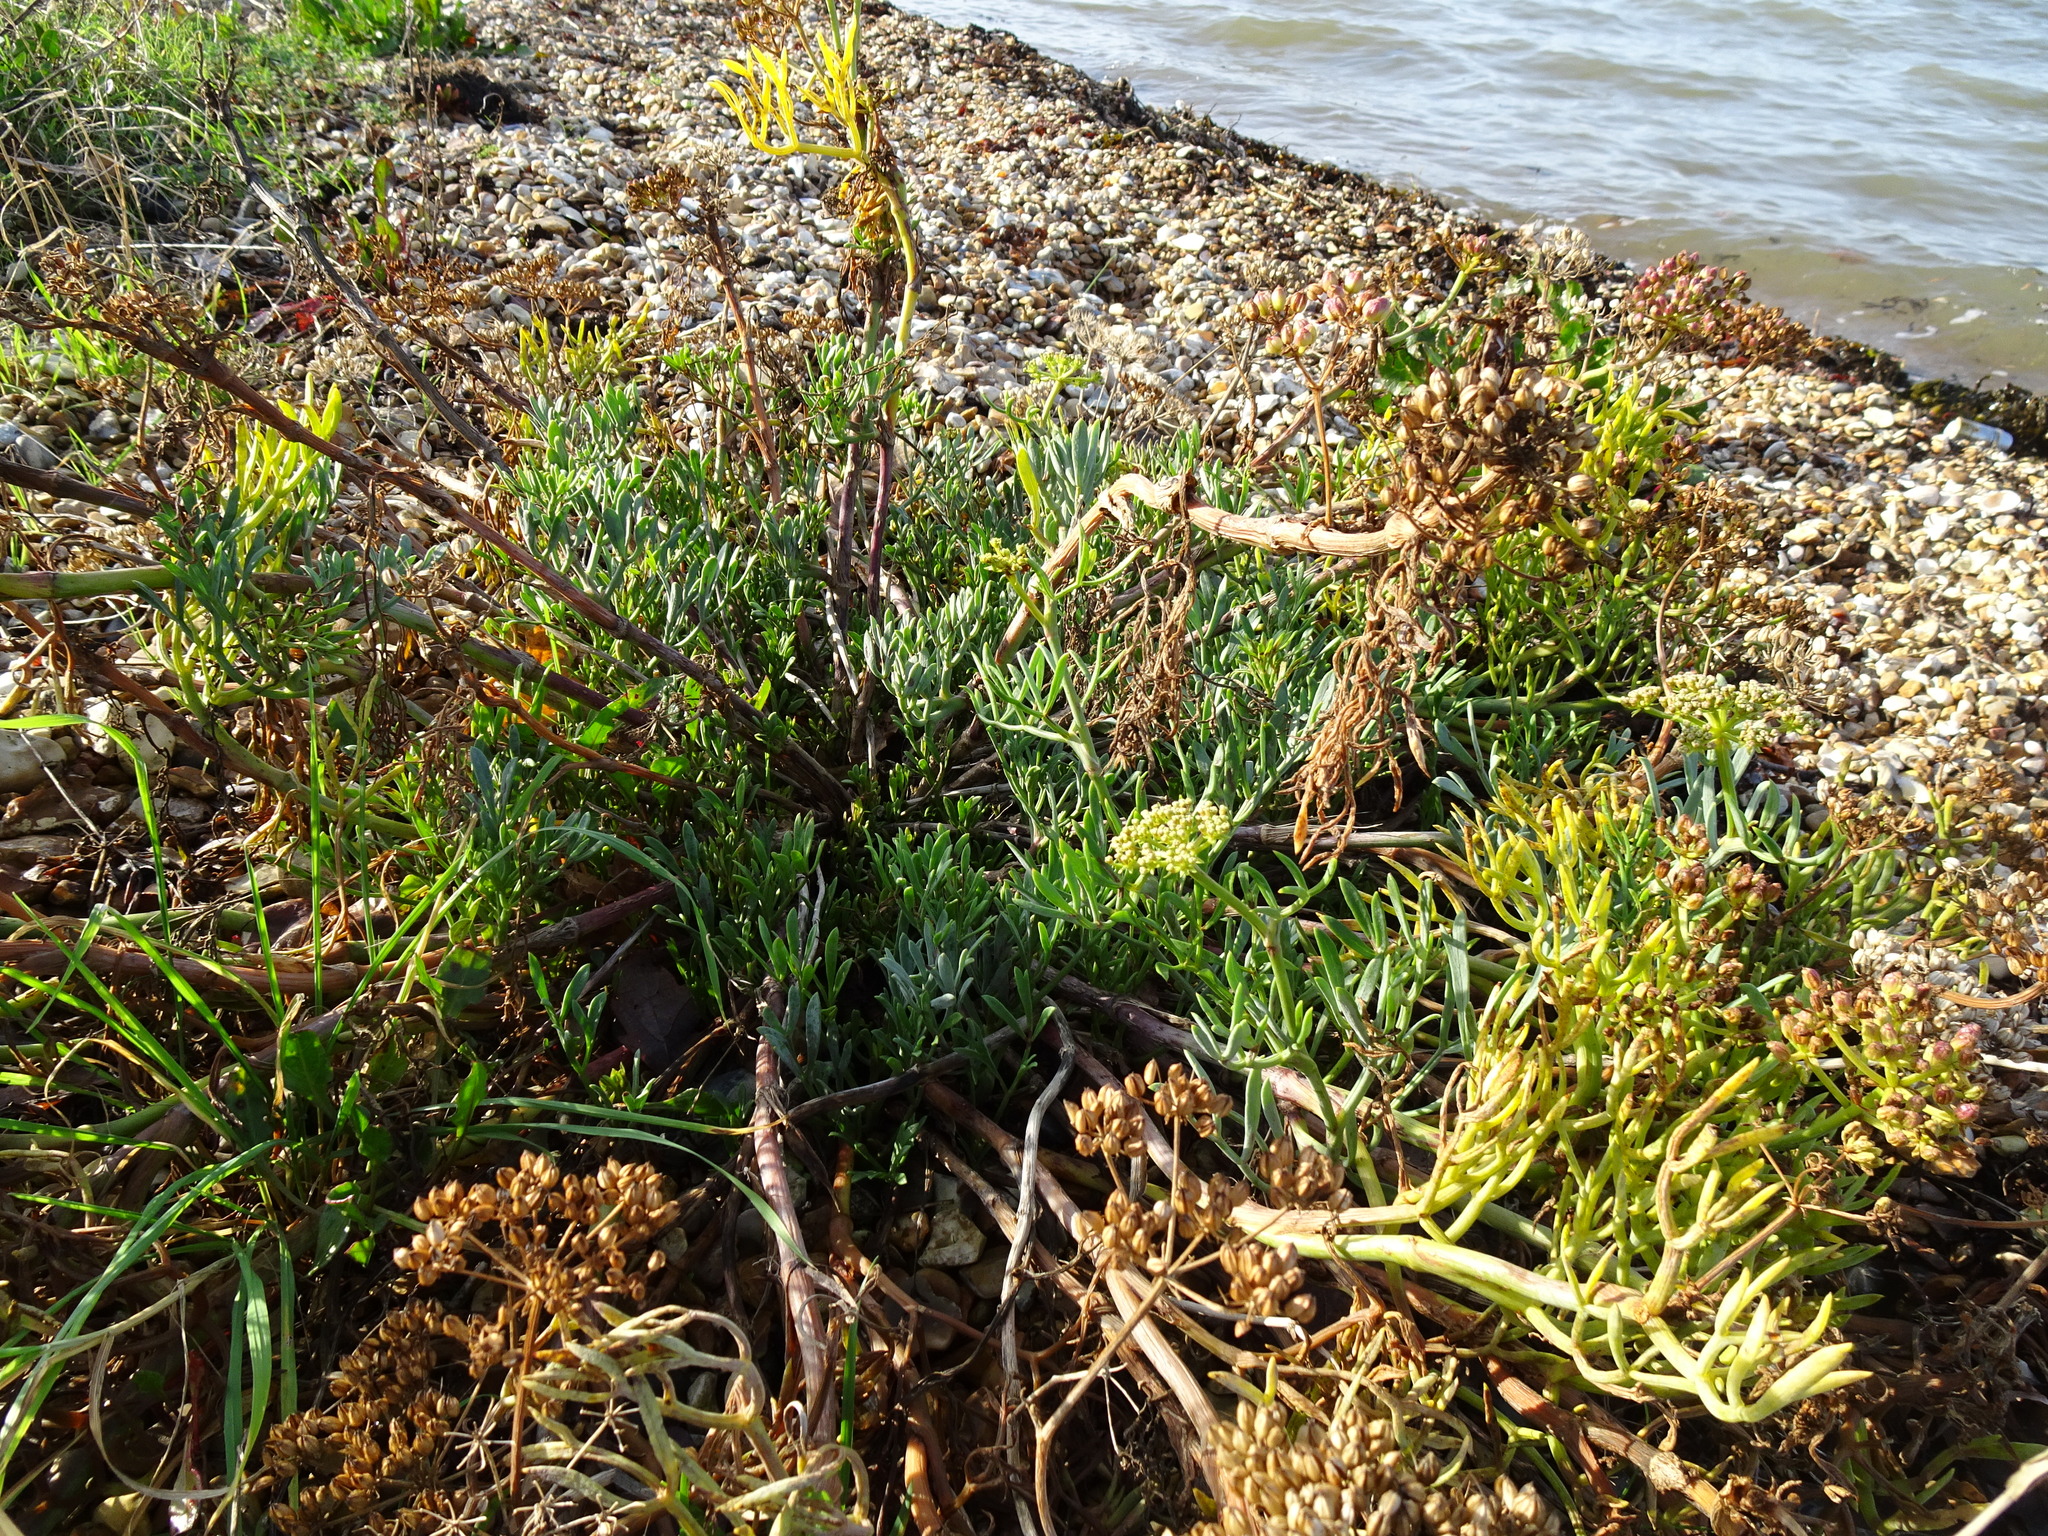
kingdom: Plantae
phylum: Tracheophyta
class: Magnoliopsida
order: Apiales
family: Apiaceae
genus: Crithmum
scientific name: Crithmum maritimum
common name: Rock samphire
